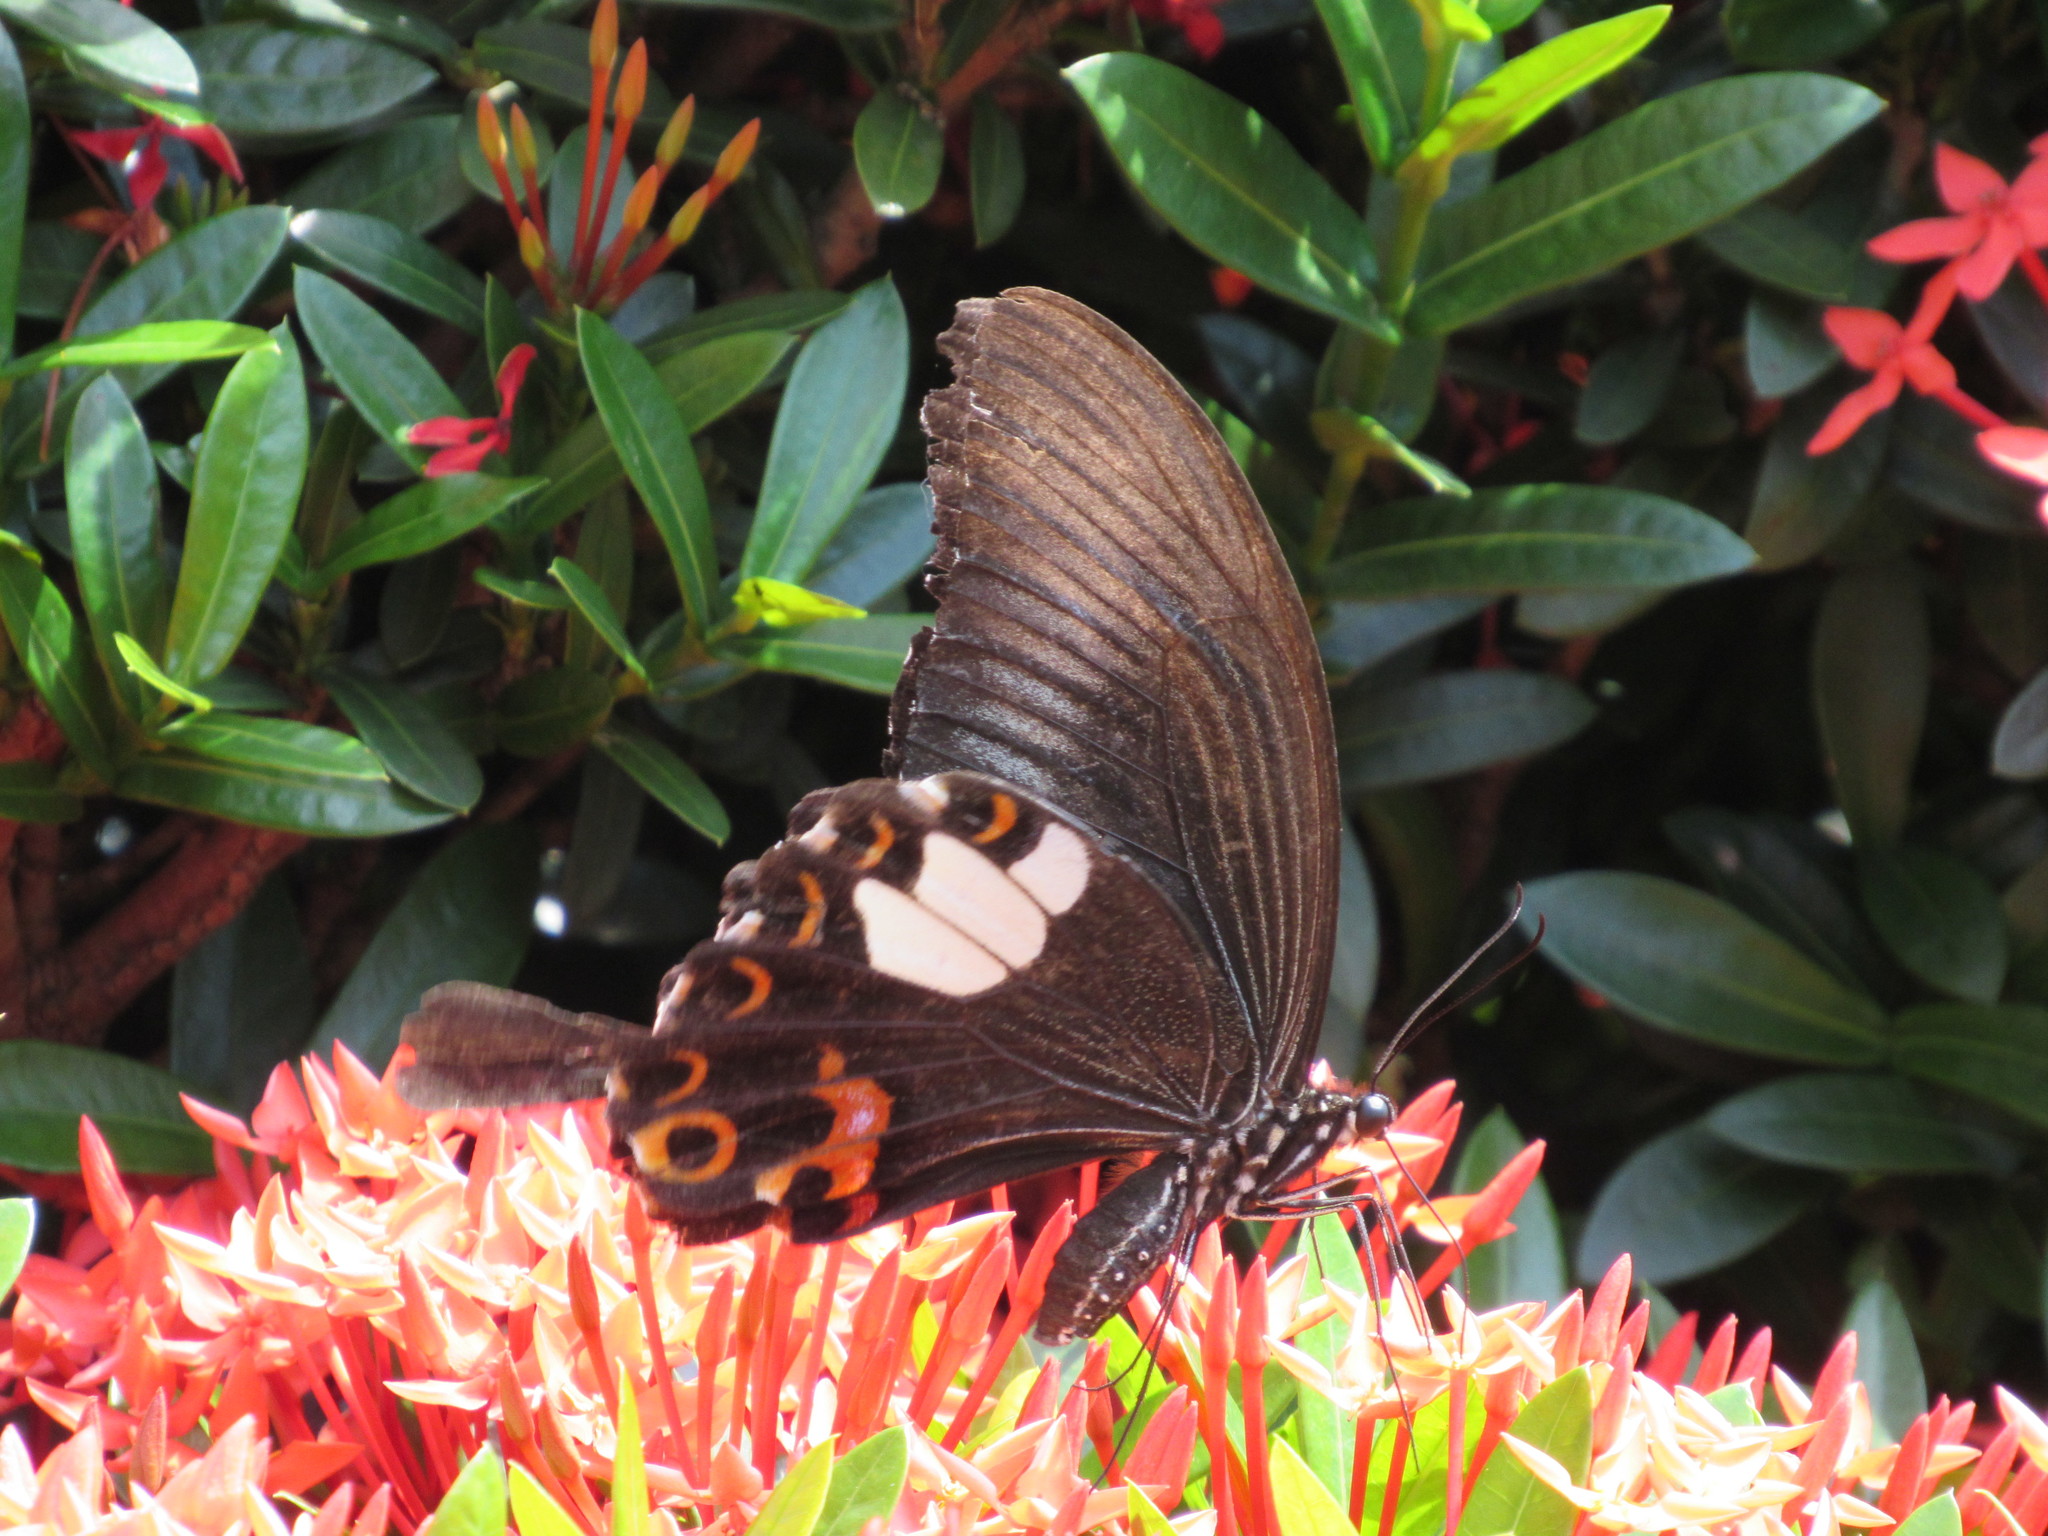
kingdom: Animalia
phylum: Arthropoda
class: Insecta
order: Lepidoptera
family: Papilionidae
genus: Papilio
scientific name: Papilio helenus
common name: Red helen
